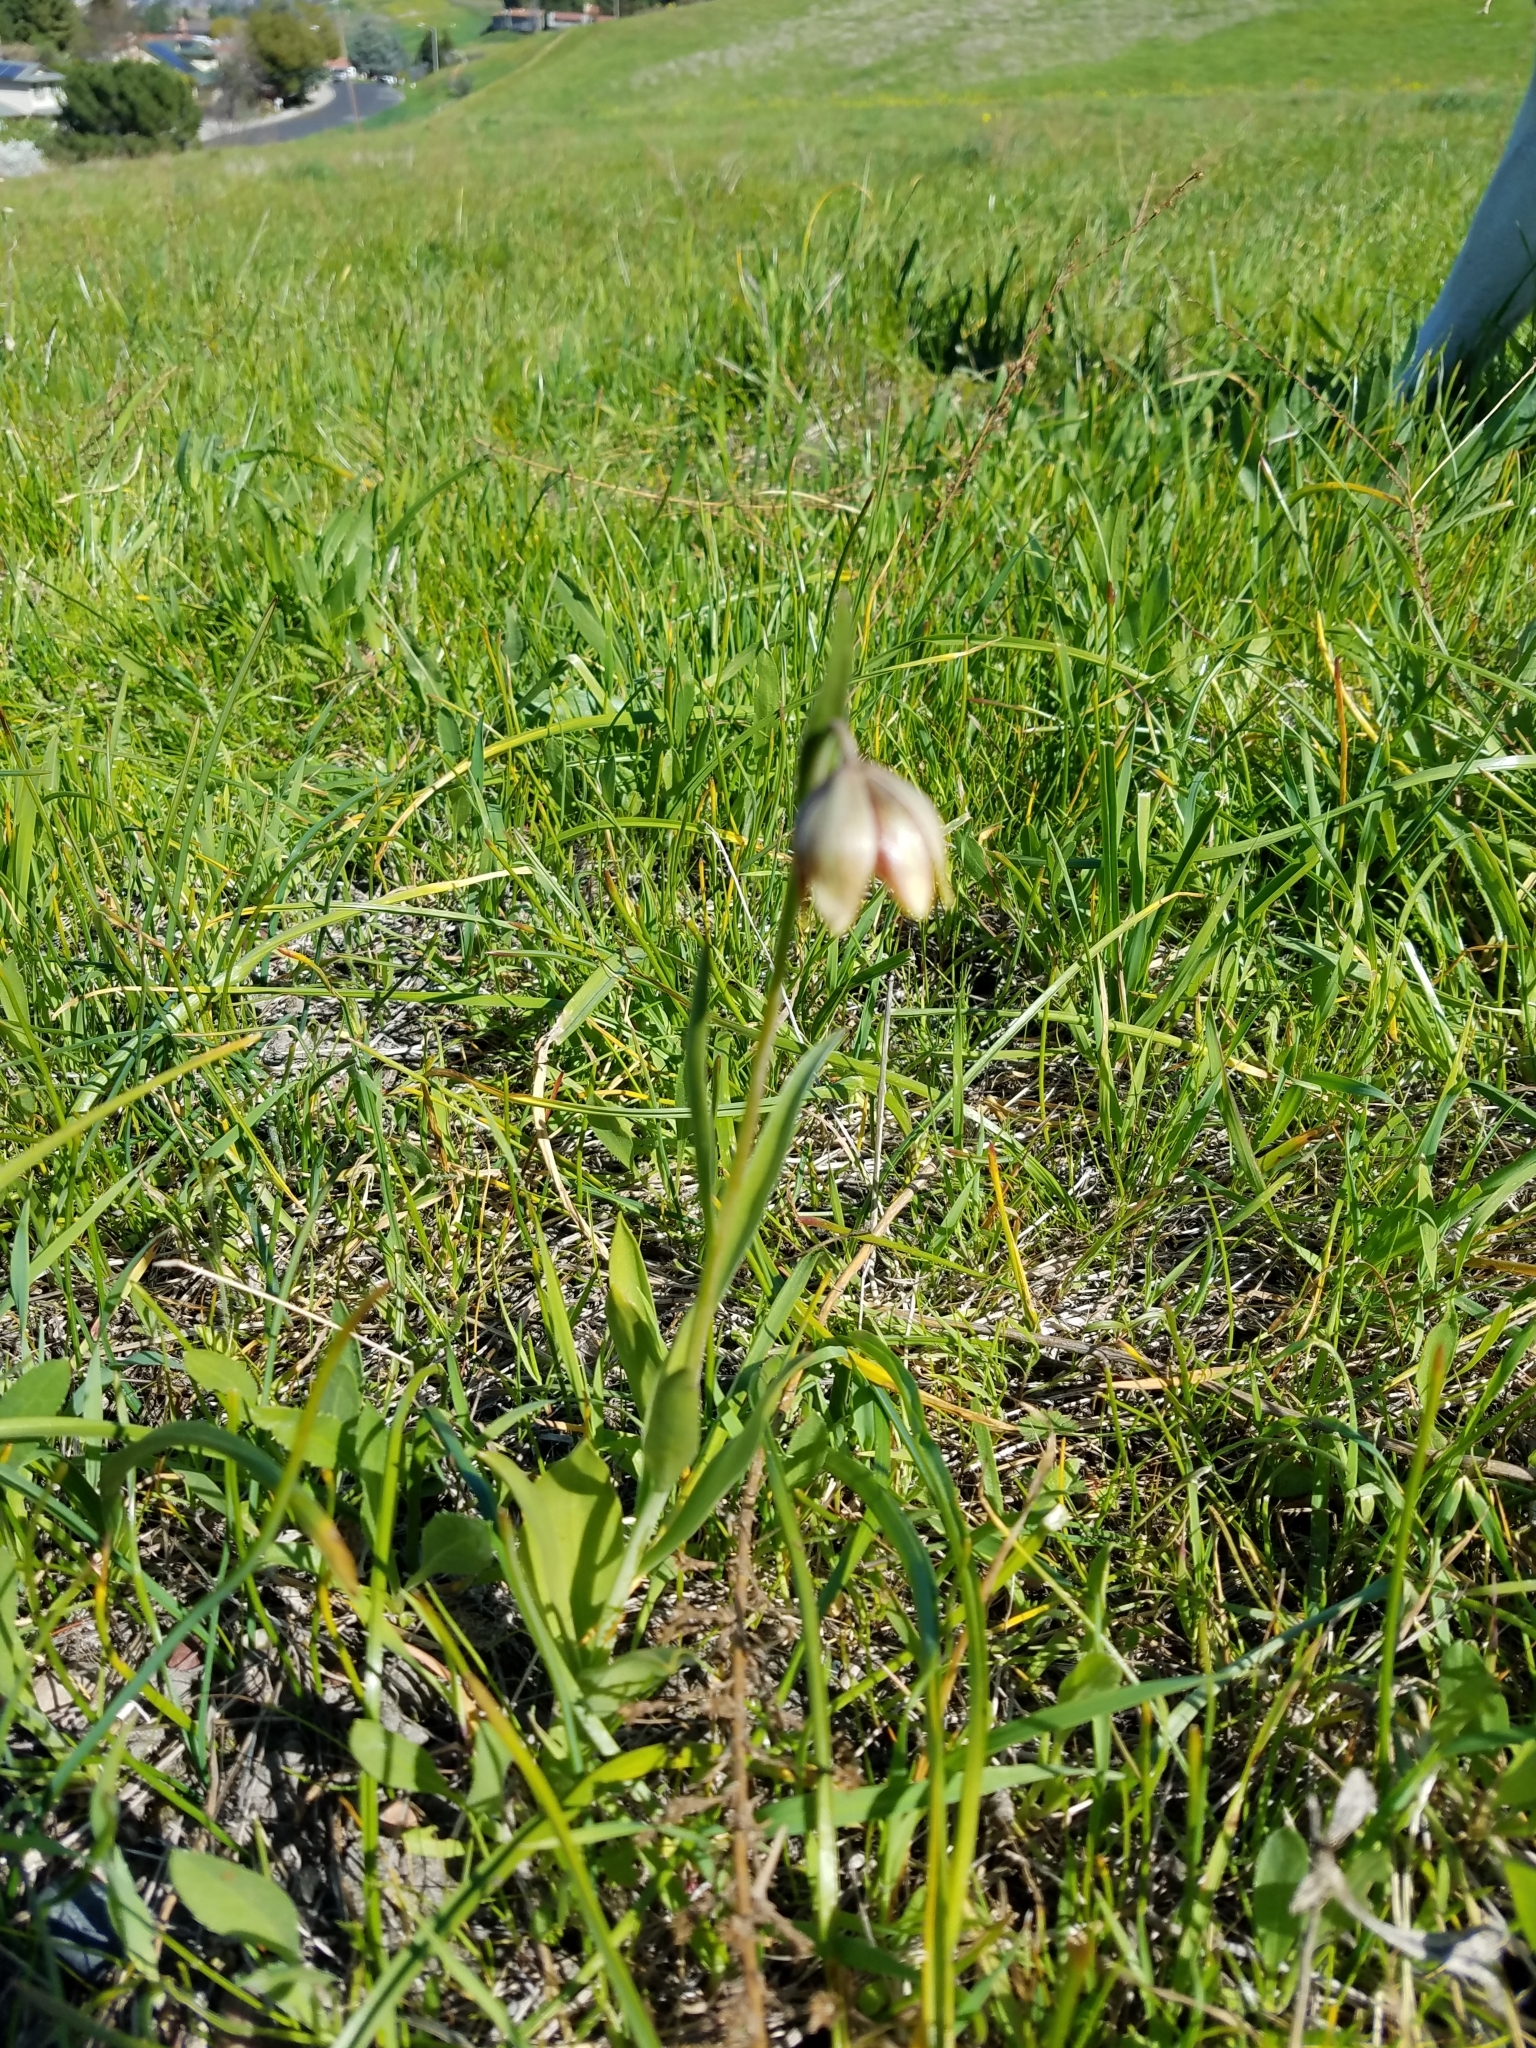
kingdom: Plantae
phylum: Tracheophyta
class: Liliopsida
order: Liliales
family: Liliaceae
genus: Fritillaria
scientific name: Fritillaria agrestis
